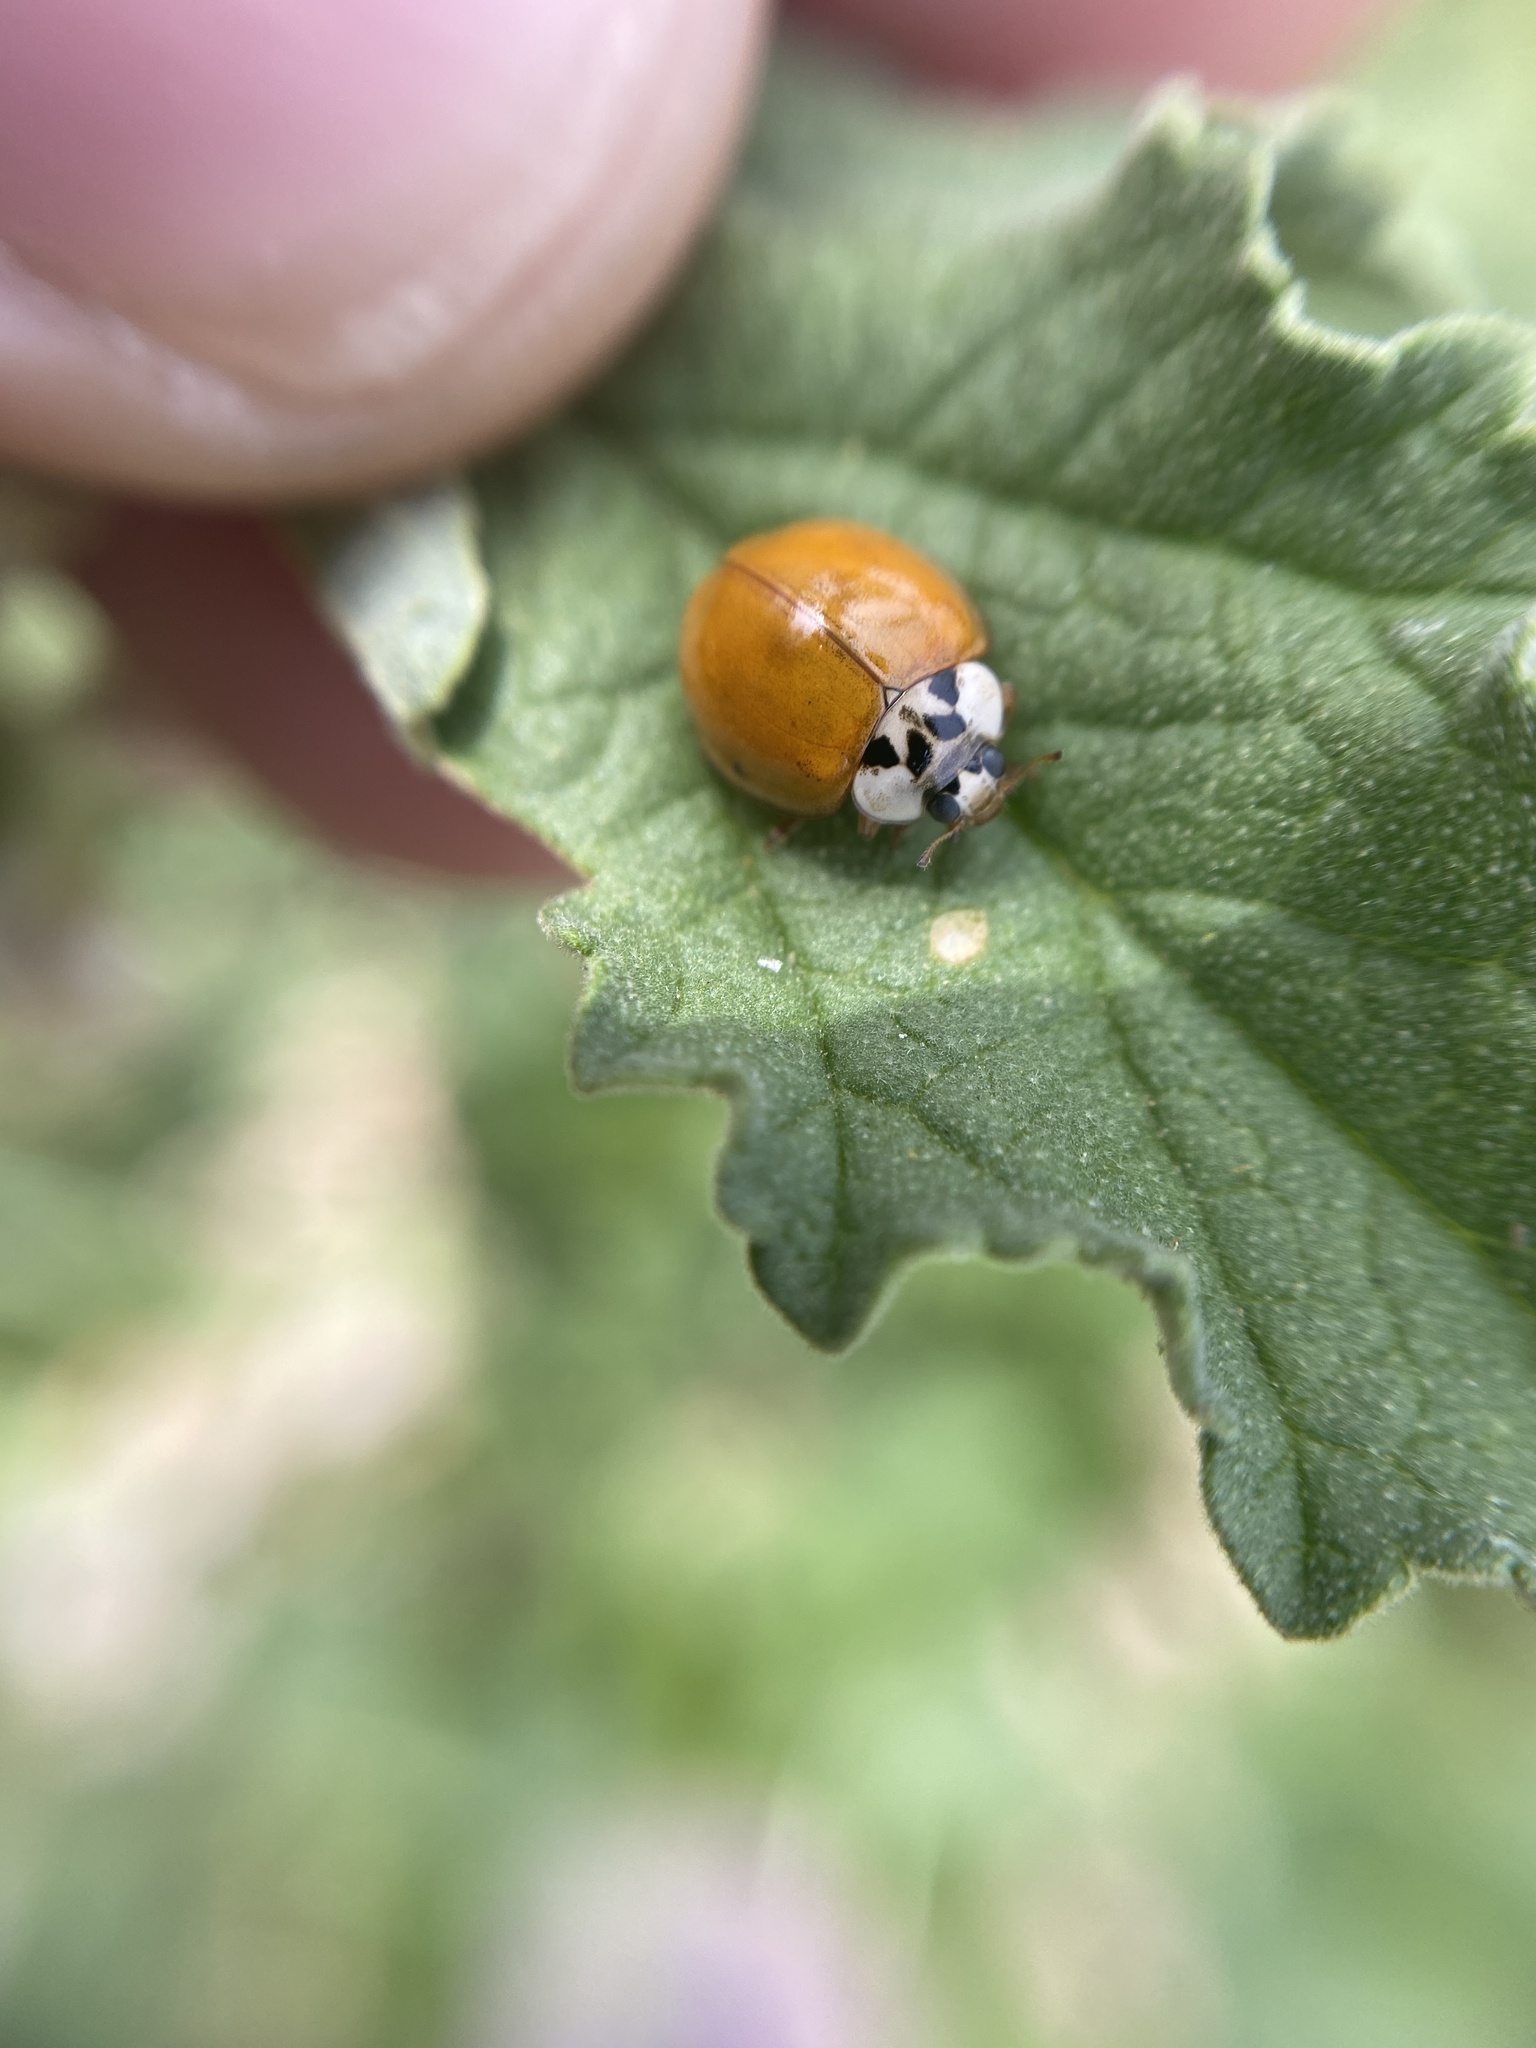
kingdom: Animalia
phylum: Arthropoda
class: Insecta
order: Coleoptera
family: Coccinellidae
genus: Harmonia
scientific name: Harmonia axyridis
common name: Harlequin ladybird
